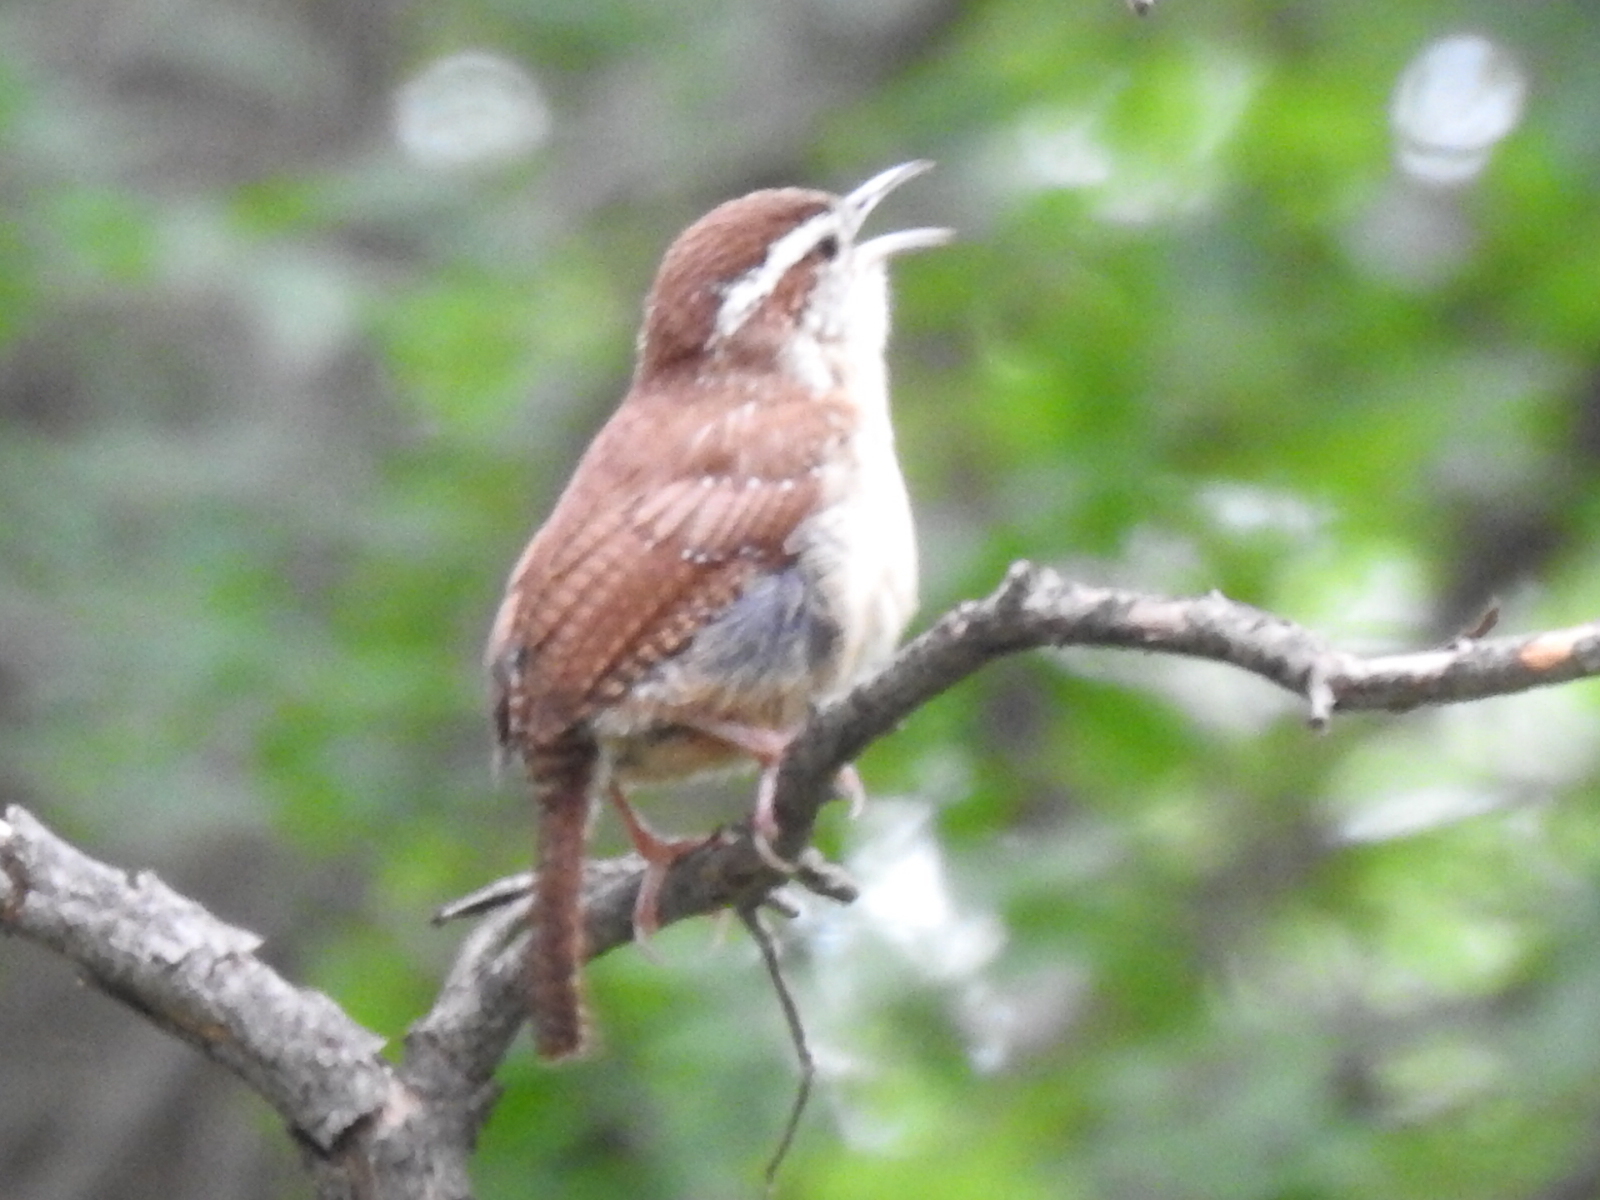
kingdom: Animalia
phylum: Chordata
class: Aves
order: Passeriformes
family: Troglodytidae
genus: Thryothorus
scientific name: Thryothorus ludovicianus
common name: Carolina wren
